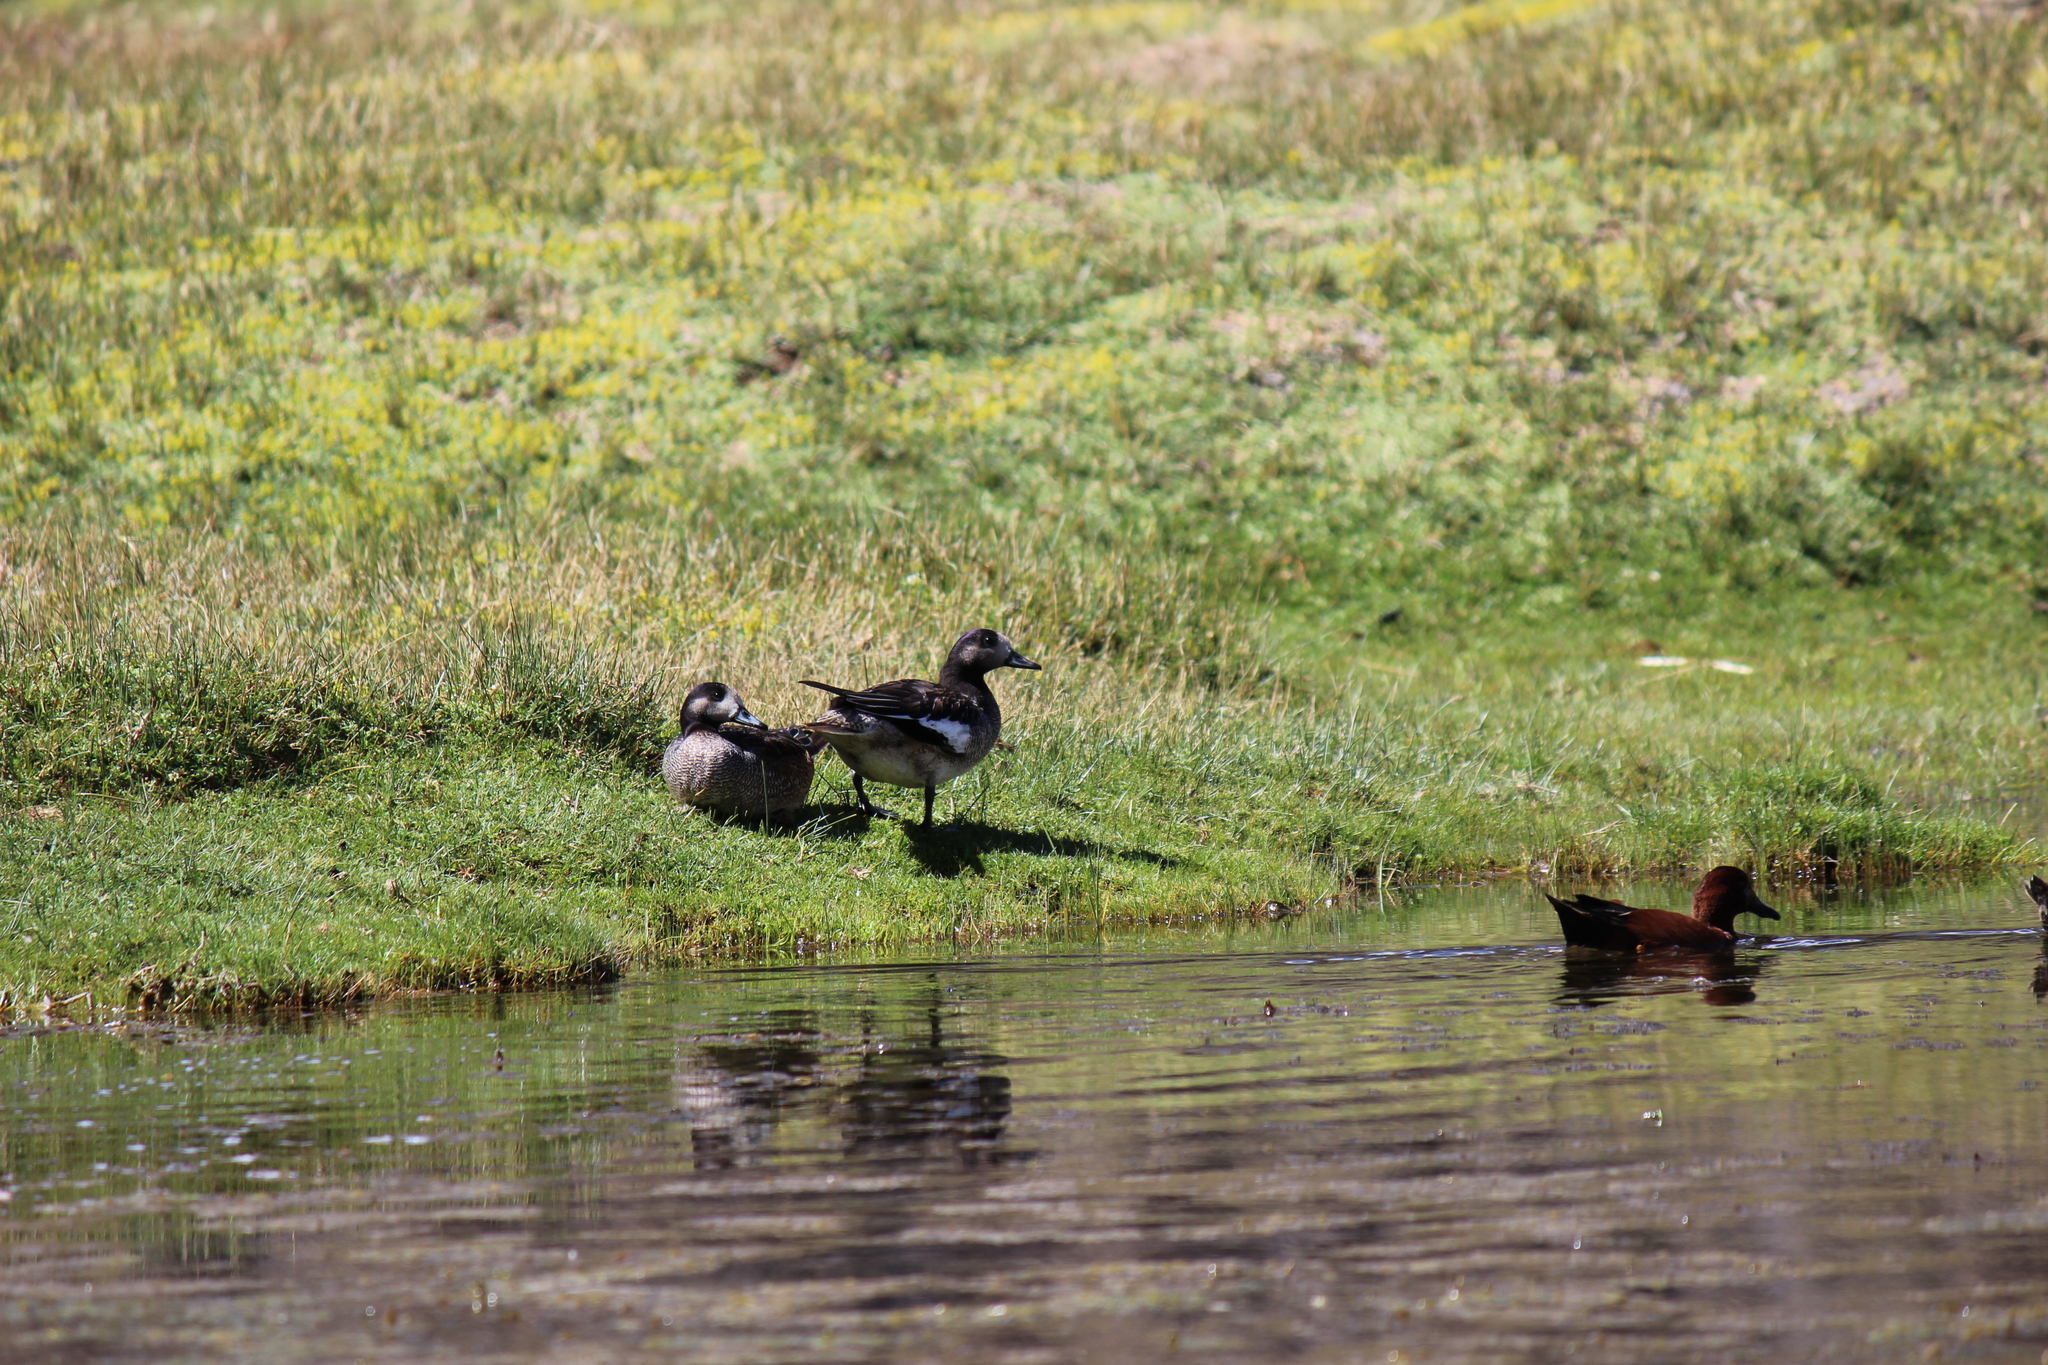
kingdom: Animalia
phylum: Chordata
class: Aves
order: Anseriformes
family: Anatidae
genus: Mareca
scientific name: Mareca sibilatrix
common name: Chiloe wigeon
